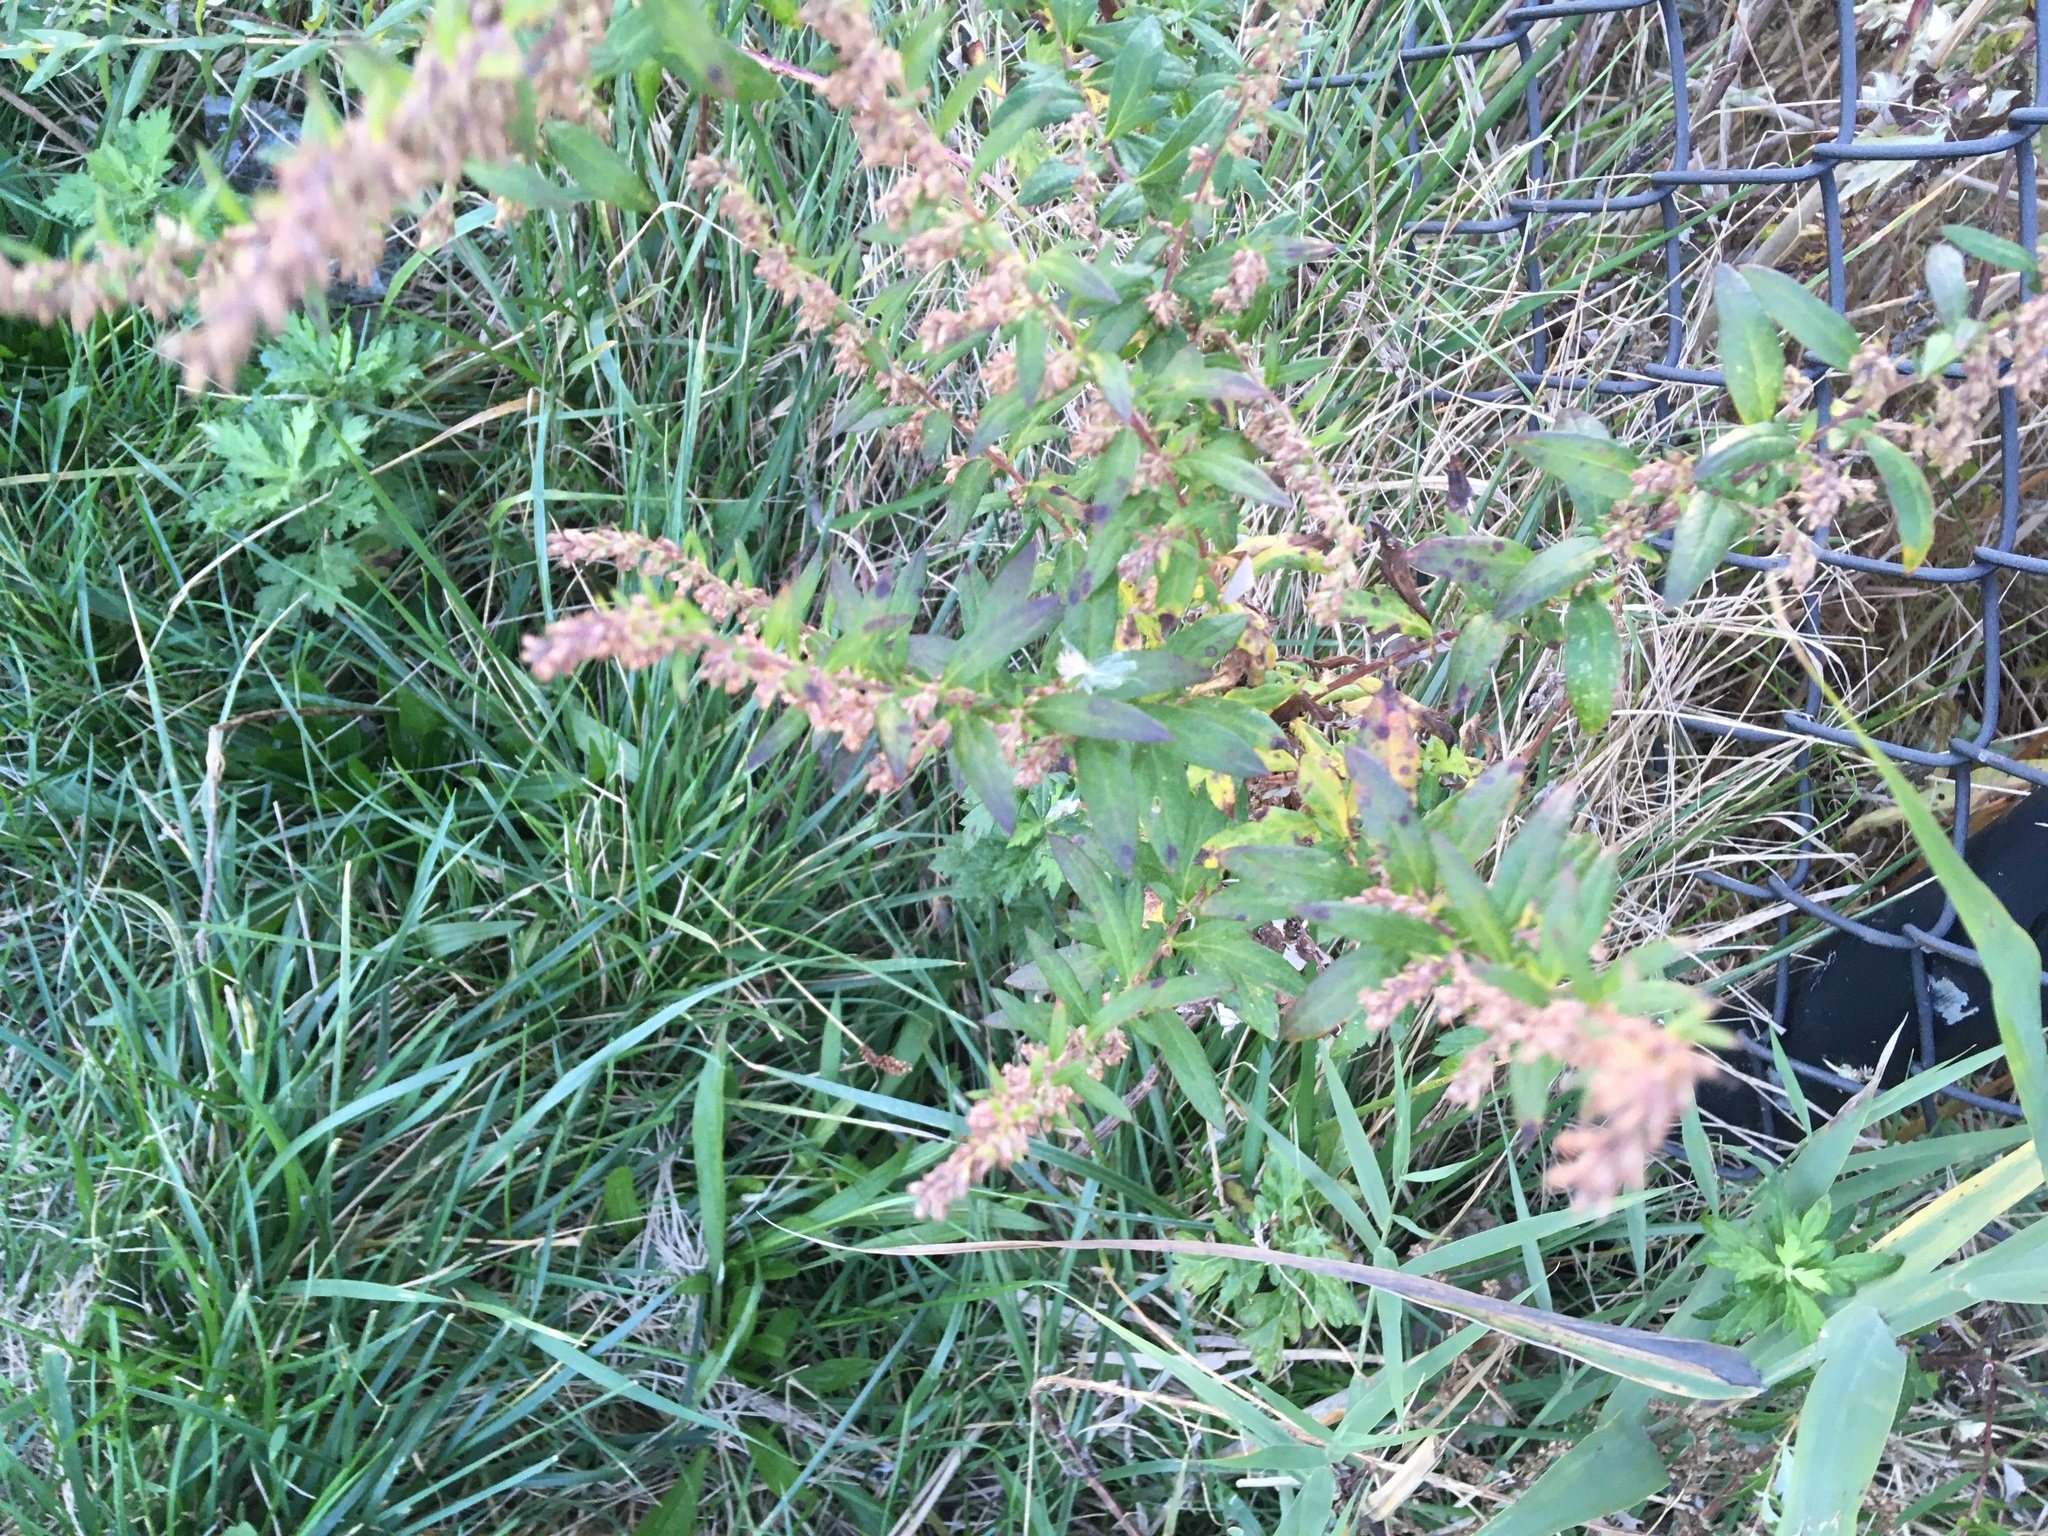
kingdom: Plantae
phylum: Tracheophyta
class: Magnoliopsida
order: Asterales
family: Asteraceae
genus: Artemisia
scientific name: Artemisia vulgaris
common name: Mugwort
